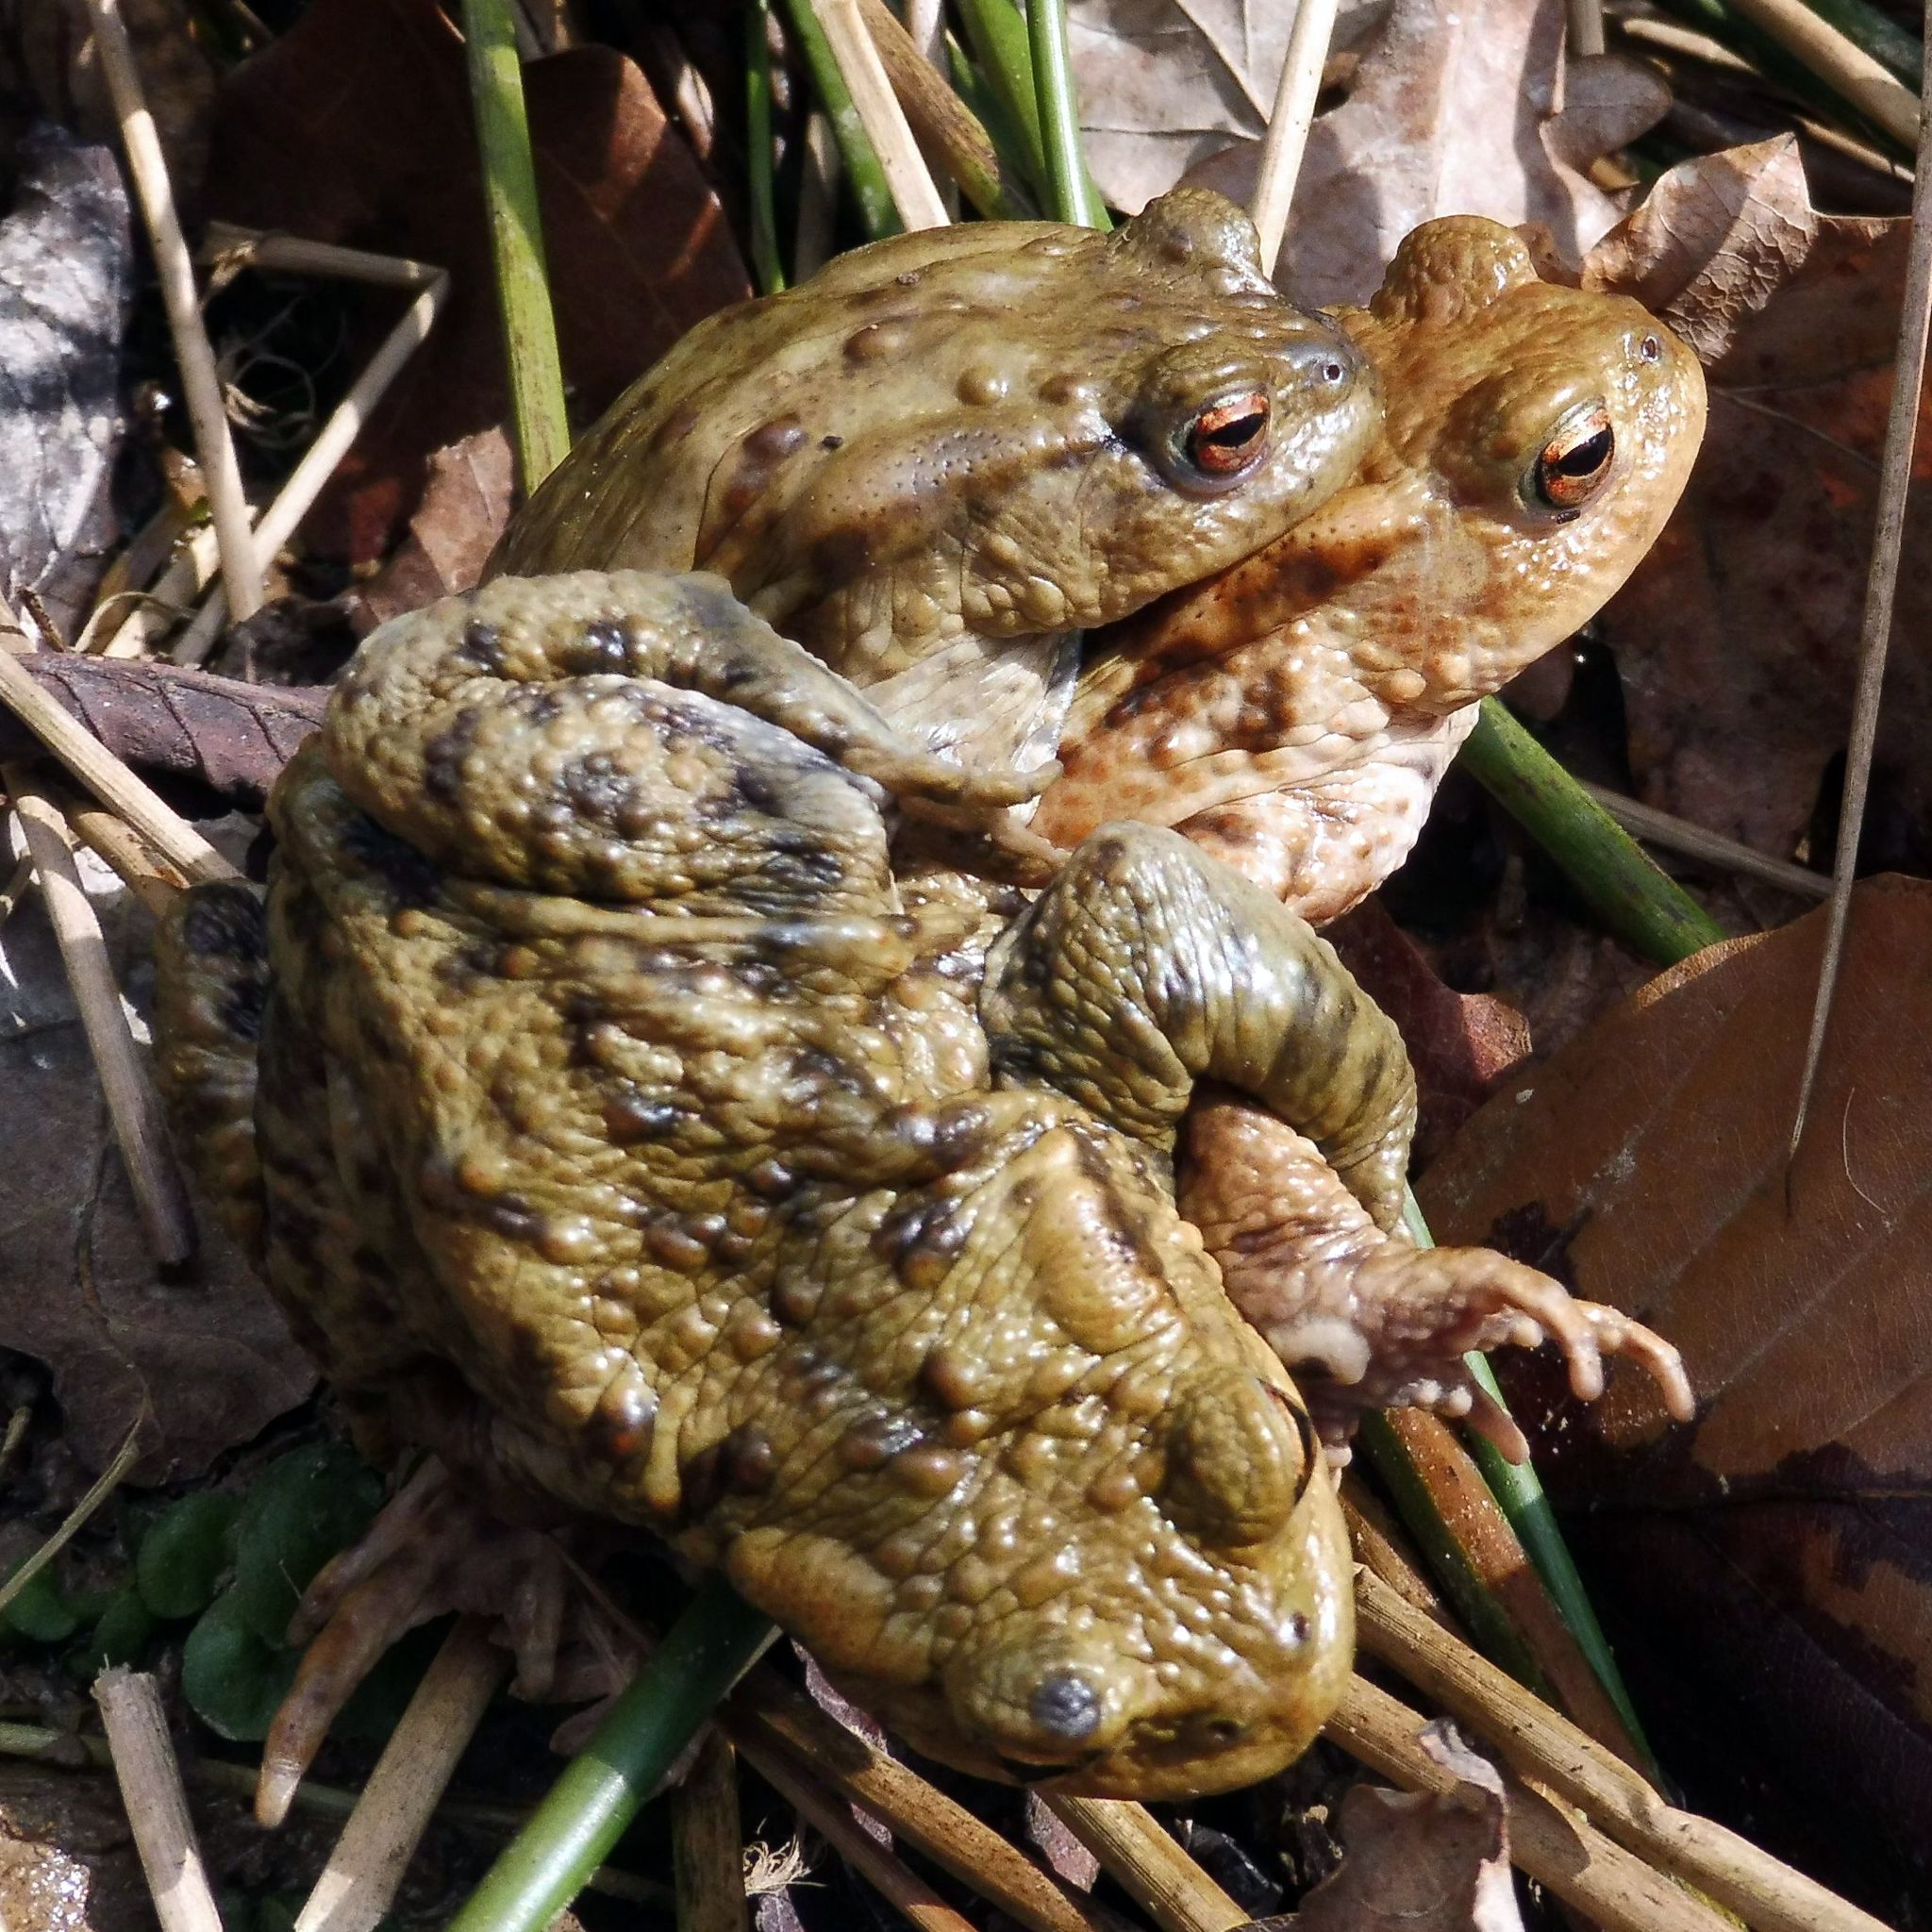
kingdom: Animalia
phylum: Chordata
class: Amphibia
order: Anura
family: Bufonidae
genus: Bufo
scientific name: Bufo bufo
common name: Common toad
